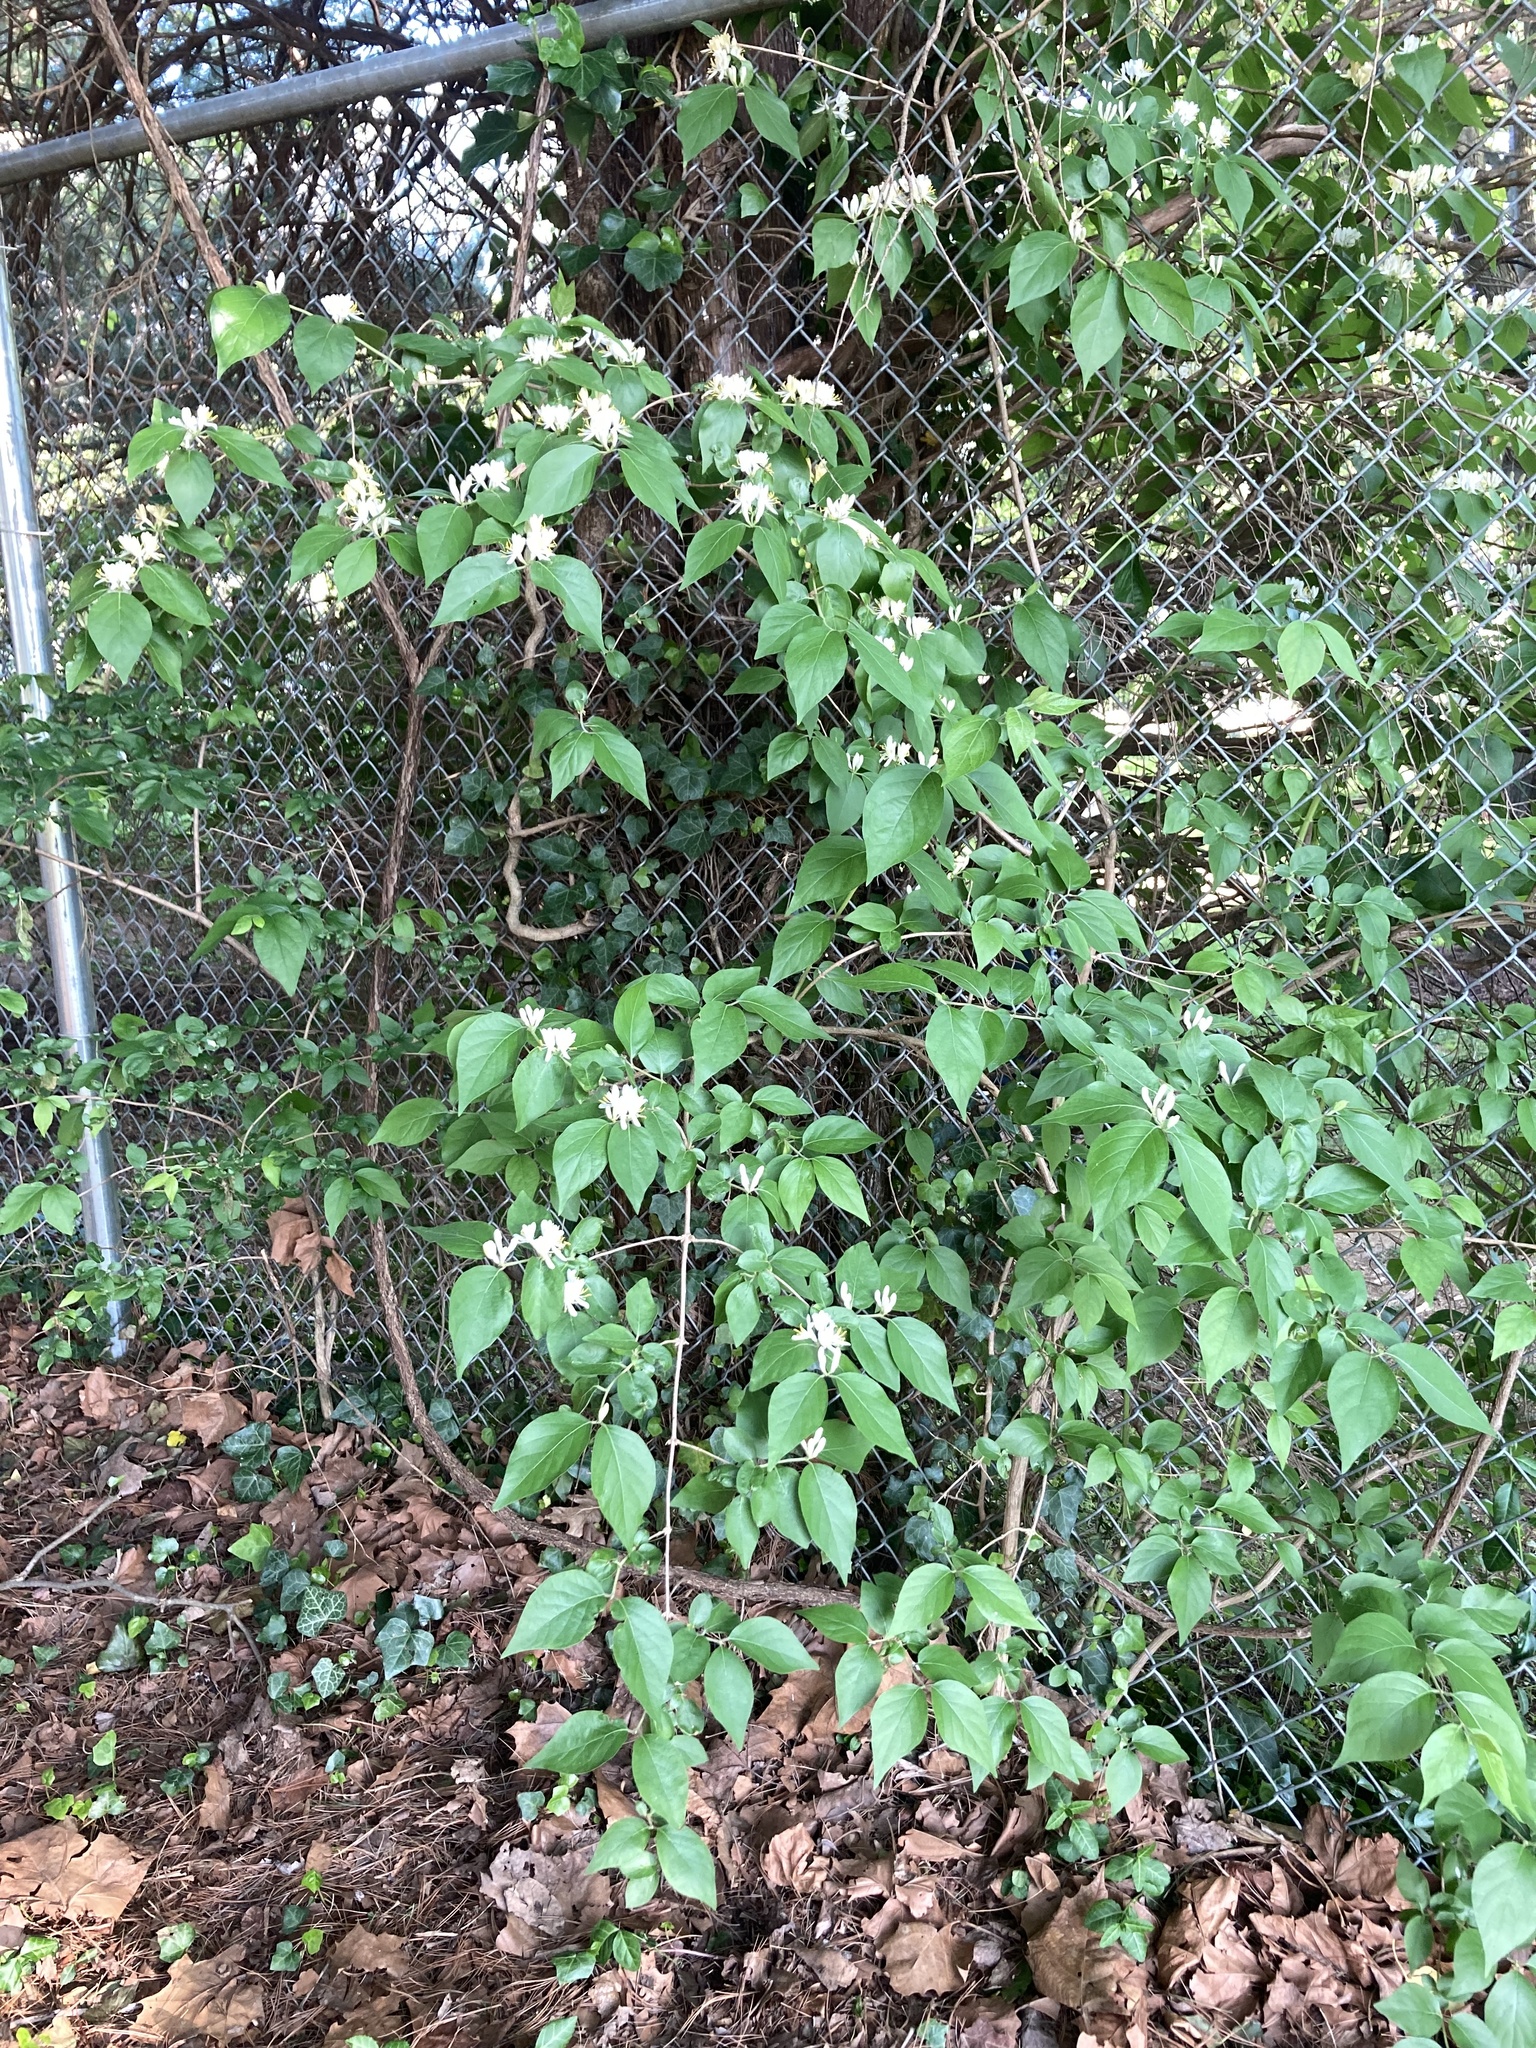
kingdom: Plantae
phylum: Tracheophyta
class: Magnoliopsida
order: Dipsacales
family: Caprifoliaceae
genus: Lonicera
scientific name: Lonicera maackii
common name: Amur honeysuckle
